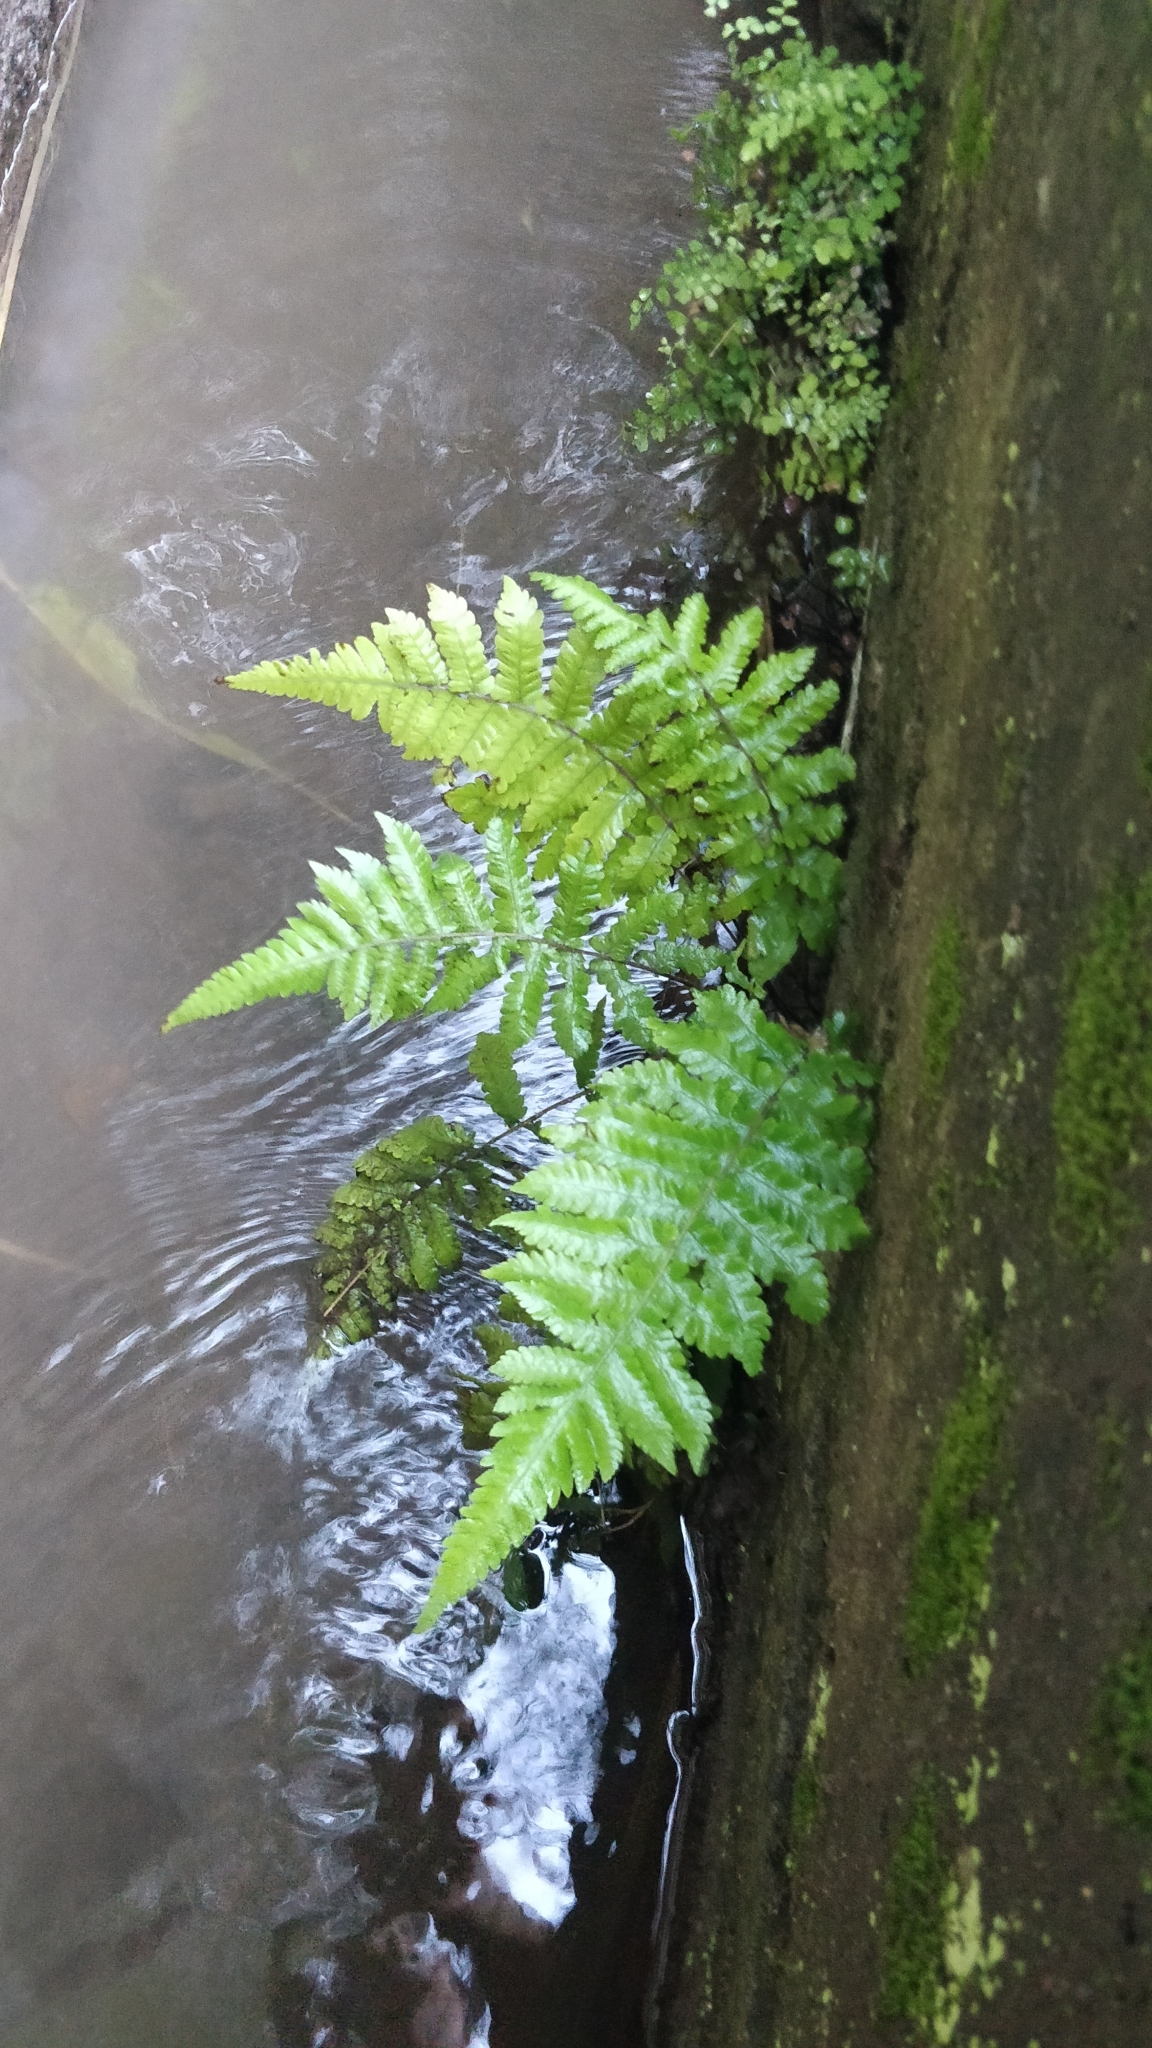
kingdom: Plantae
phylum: Tracheophyta
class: Polypodiopsida
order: Polypodiales
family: Thelypteridaceae
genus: Christella
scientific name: Christella dentata
